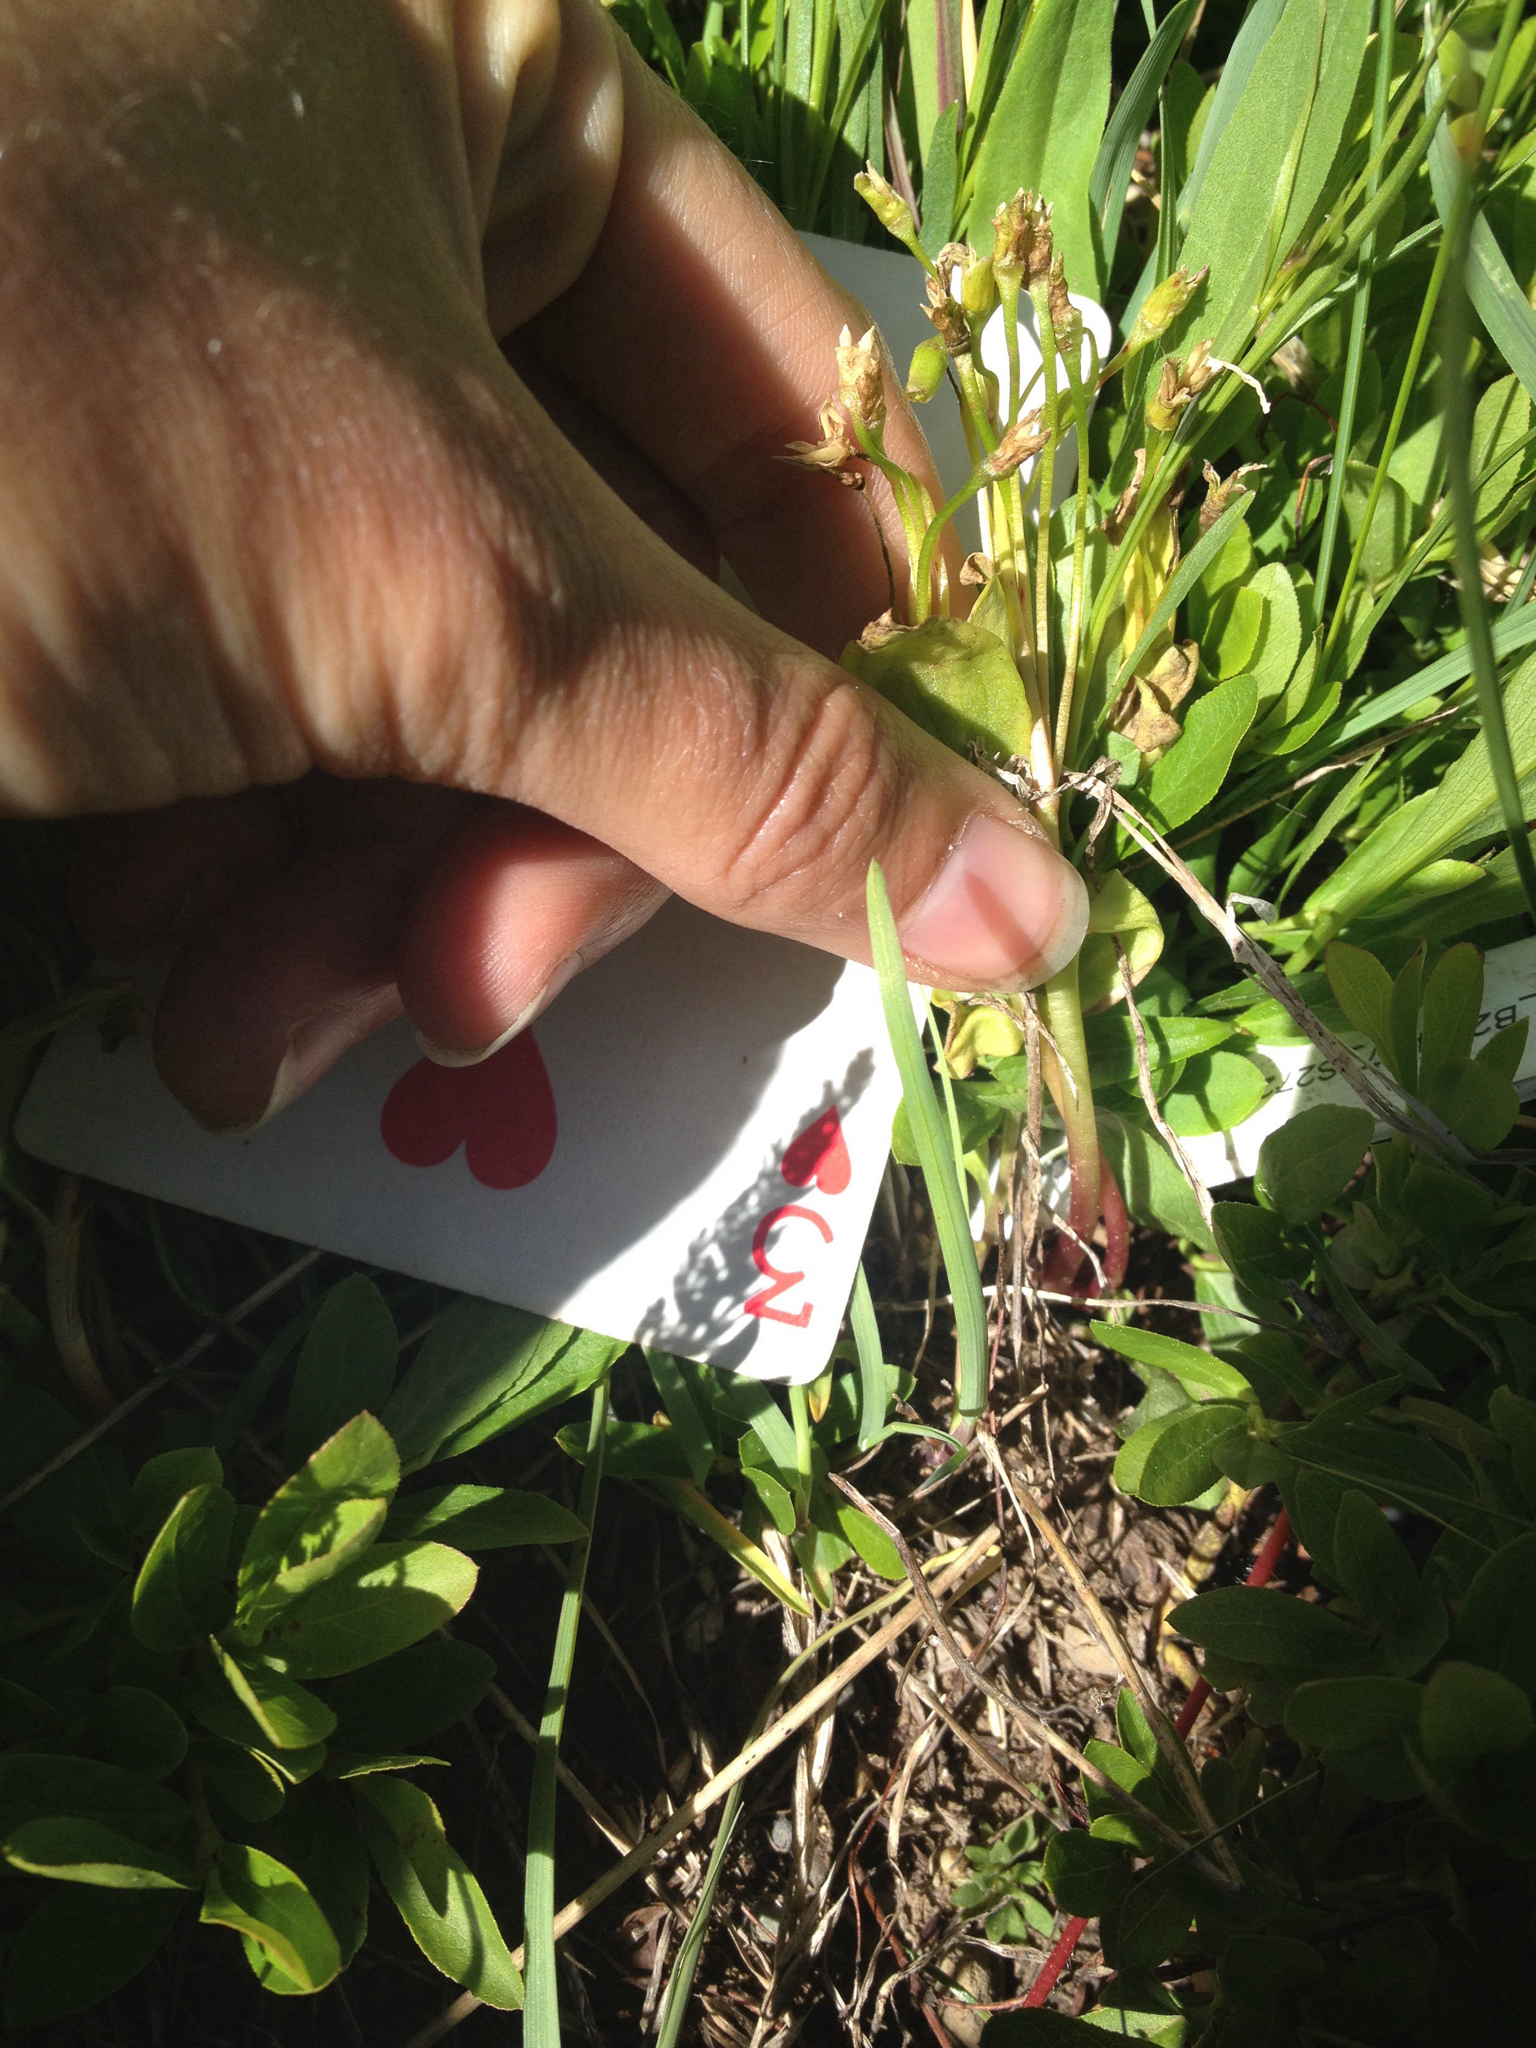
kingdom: Plantae
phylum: Tracheophyta
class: Magnoliopsida
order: Caryophyllales
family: Montiaceae
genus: Claytonia
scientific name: Claytonia lanceolata
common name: Western spring-beauty
